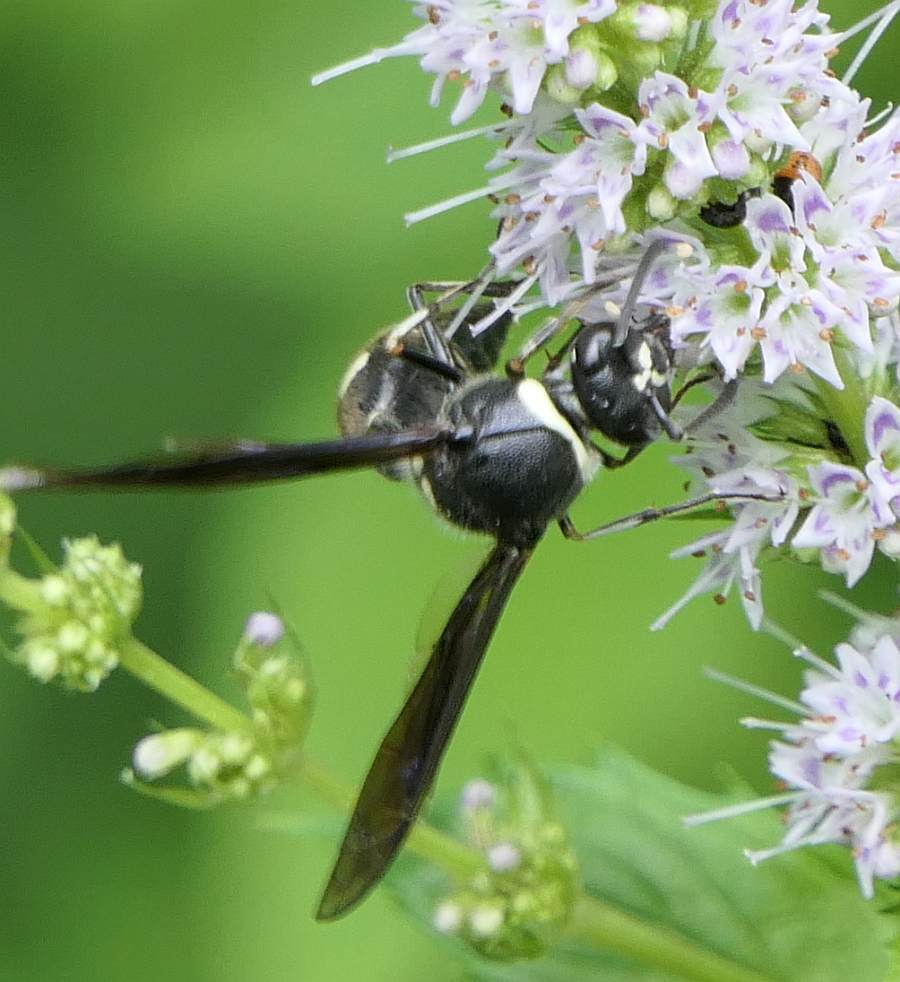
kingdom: Animalia
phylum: Arthropoda
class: Insecta
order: Hymenoptera
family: Vespidae
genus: Eumenes
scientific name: Eumenes fraternus
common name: Fraternal potter wasp
